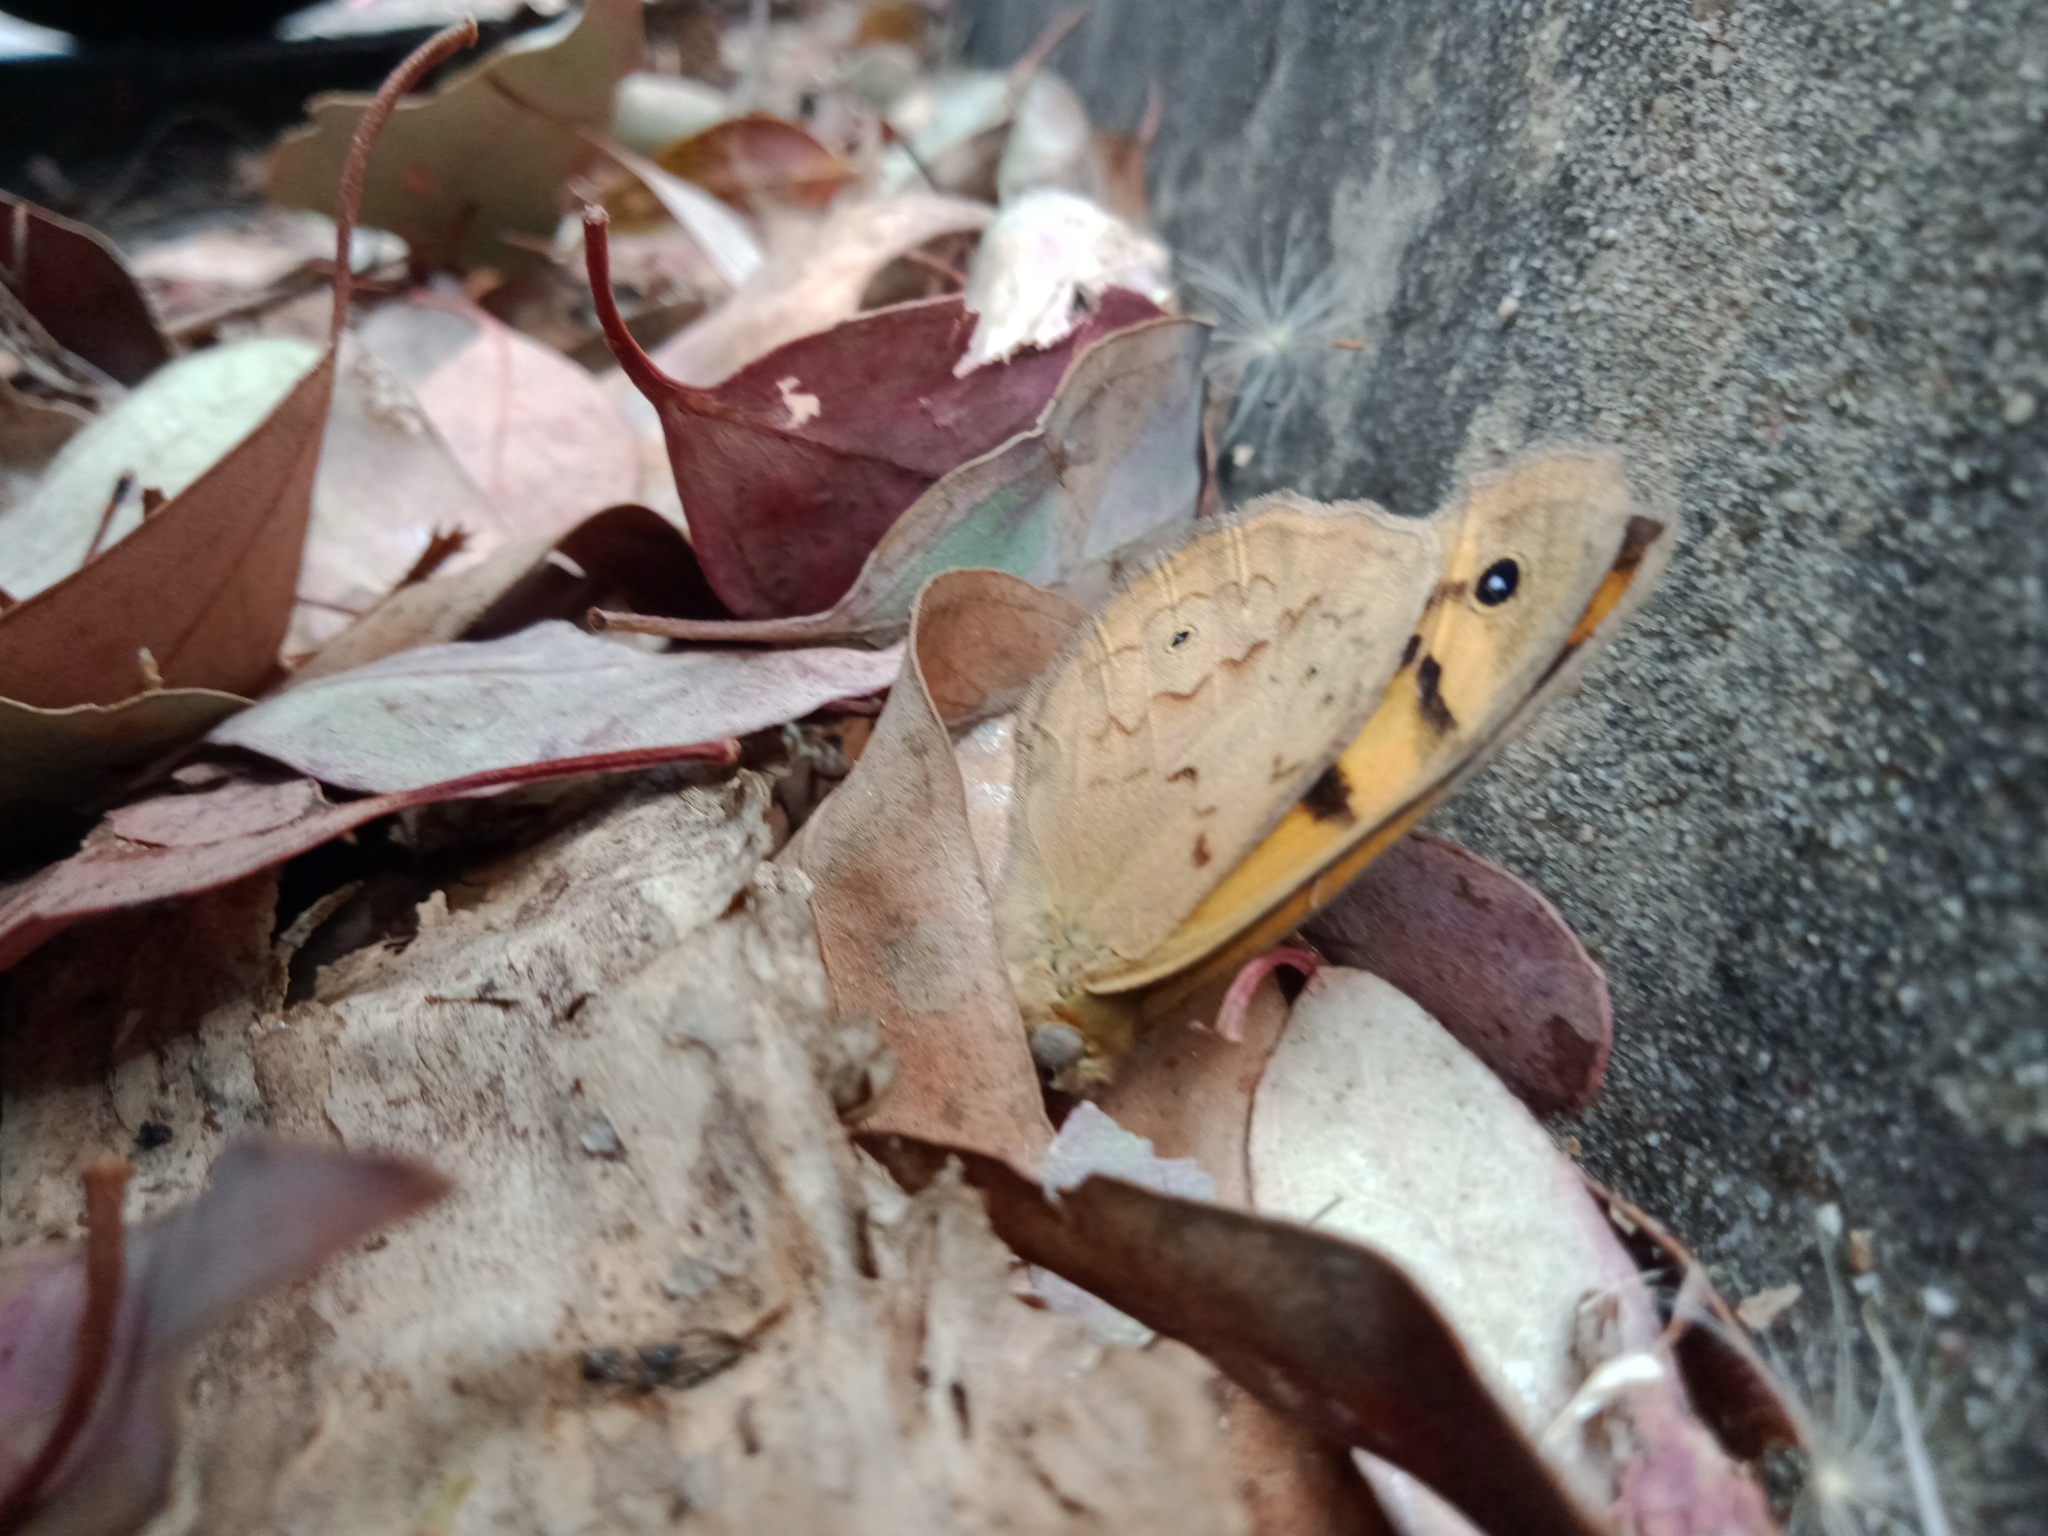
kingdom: Animalia
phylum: Arthropoda
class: Insecta
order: Lepidoptera
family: Nymphalidae
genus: Heteronympha
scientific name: Heteronympha merope
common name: Common brown
